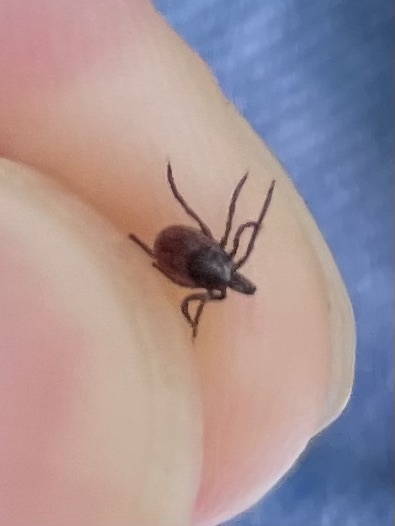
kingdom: Animalia
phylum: Arthropoda
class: Arachnida
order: Ixodida
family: Ixodidae
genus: Ixodes
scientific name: Ixodes pacificus
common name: California black-legged tick
